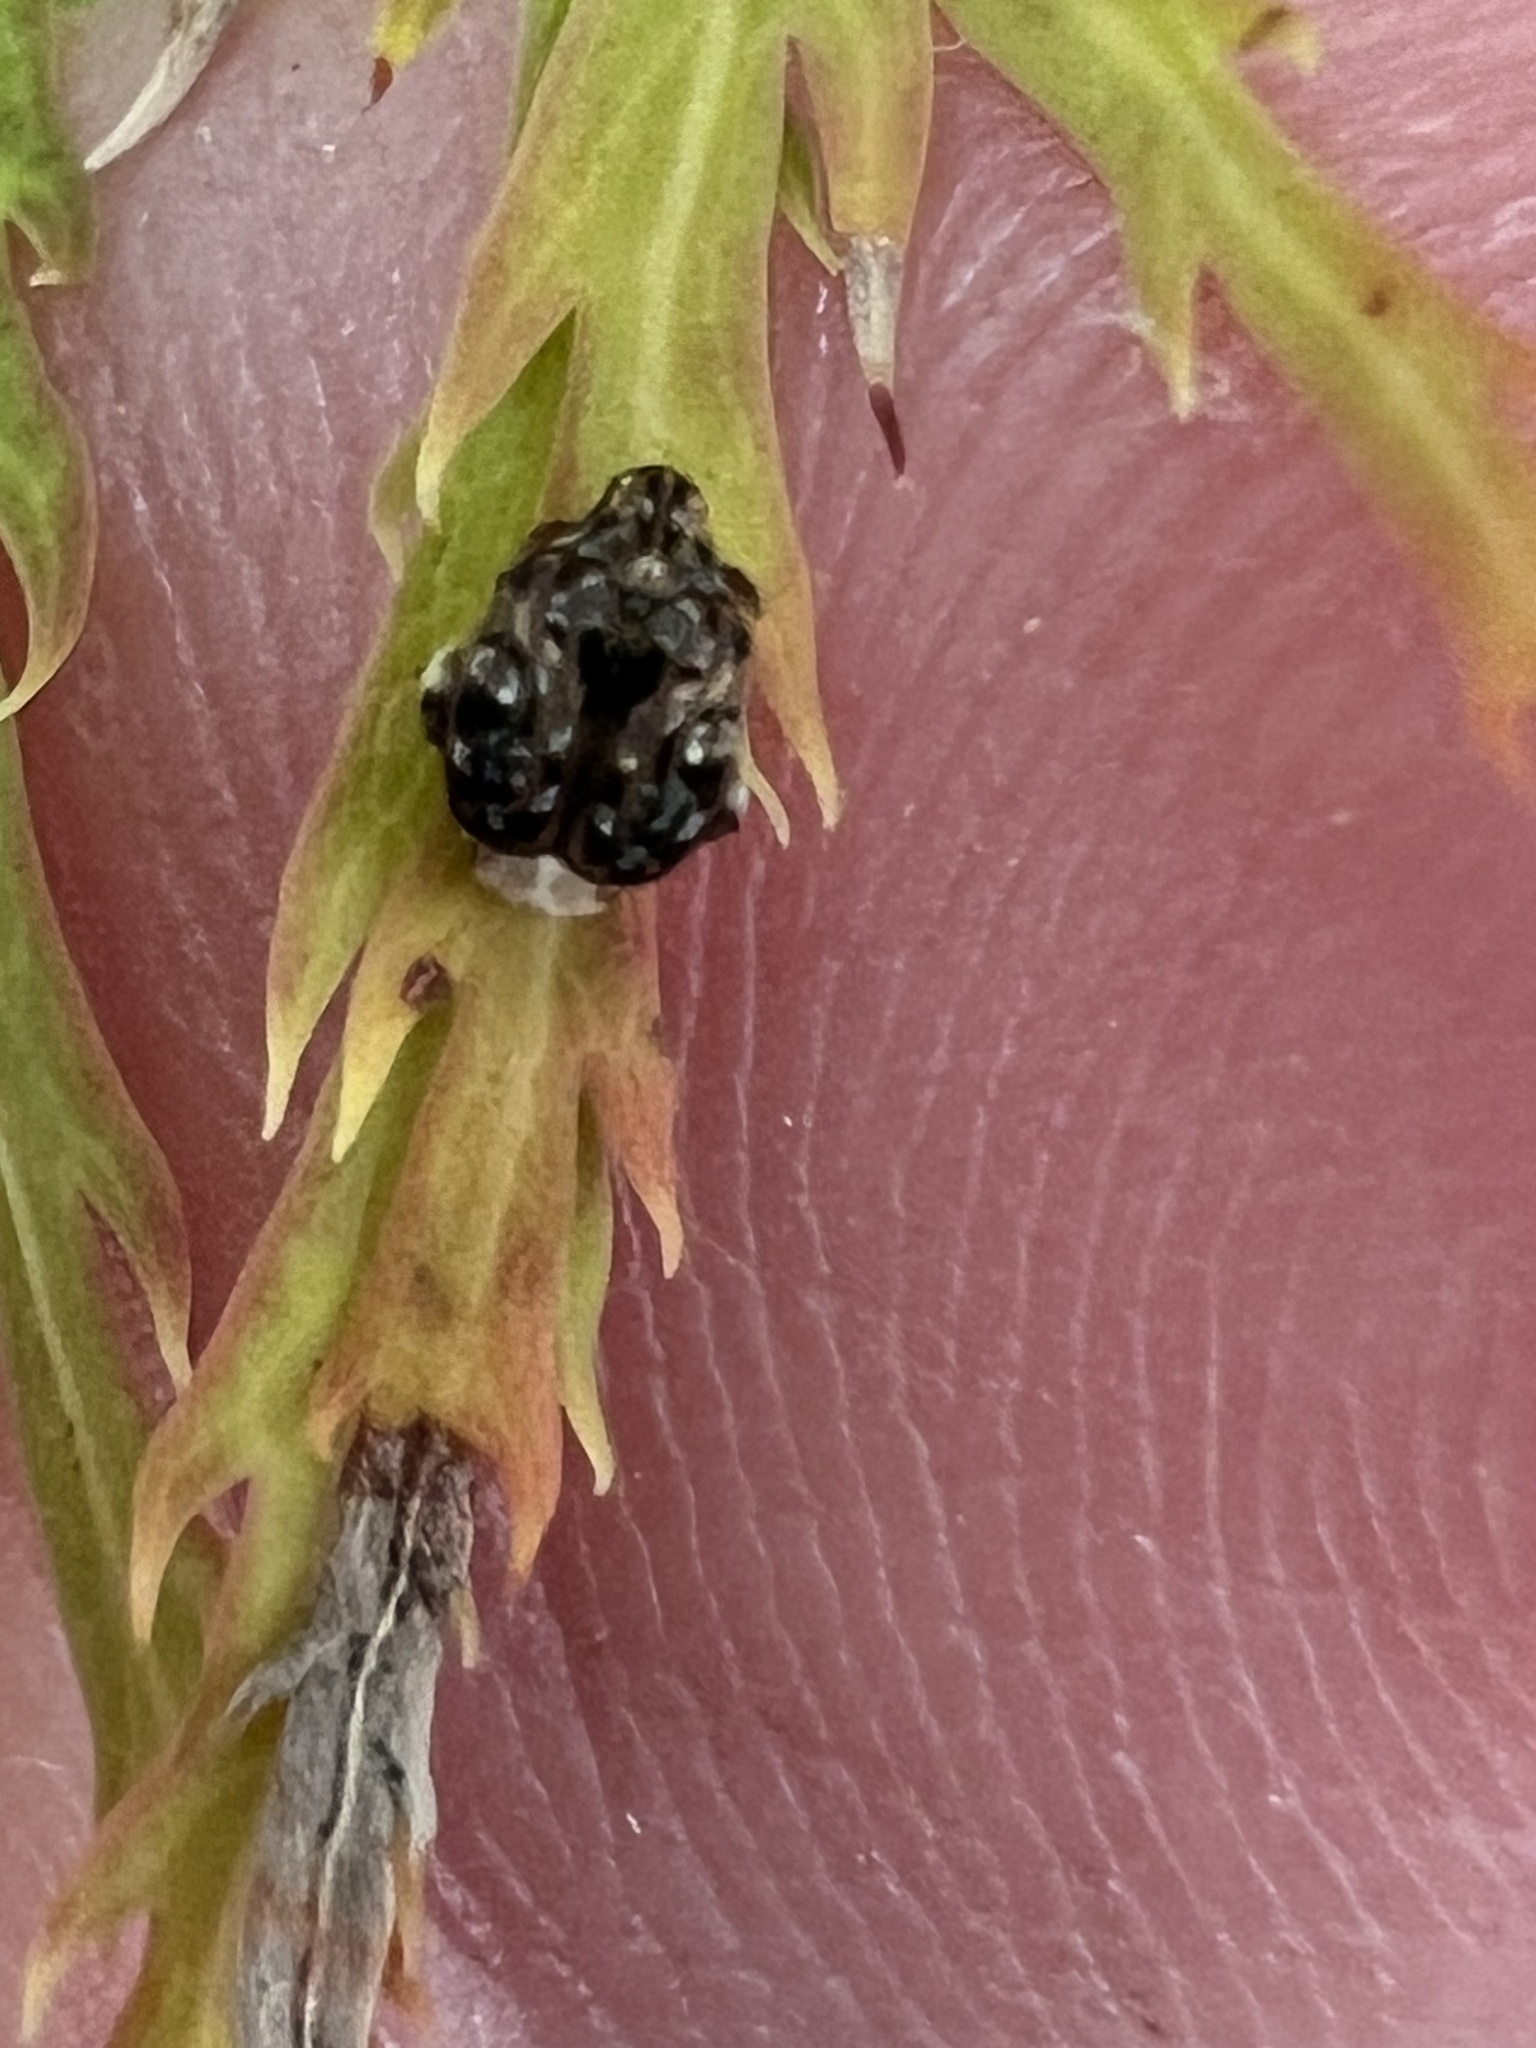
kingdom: Animalia
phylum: Arthropoda
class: Insecta
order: Coleoptera
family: Chrysomelidae
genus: Gibbobruchus
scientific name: Gibbobruchus mimus
